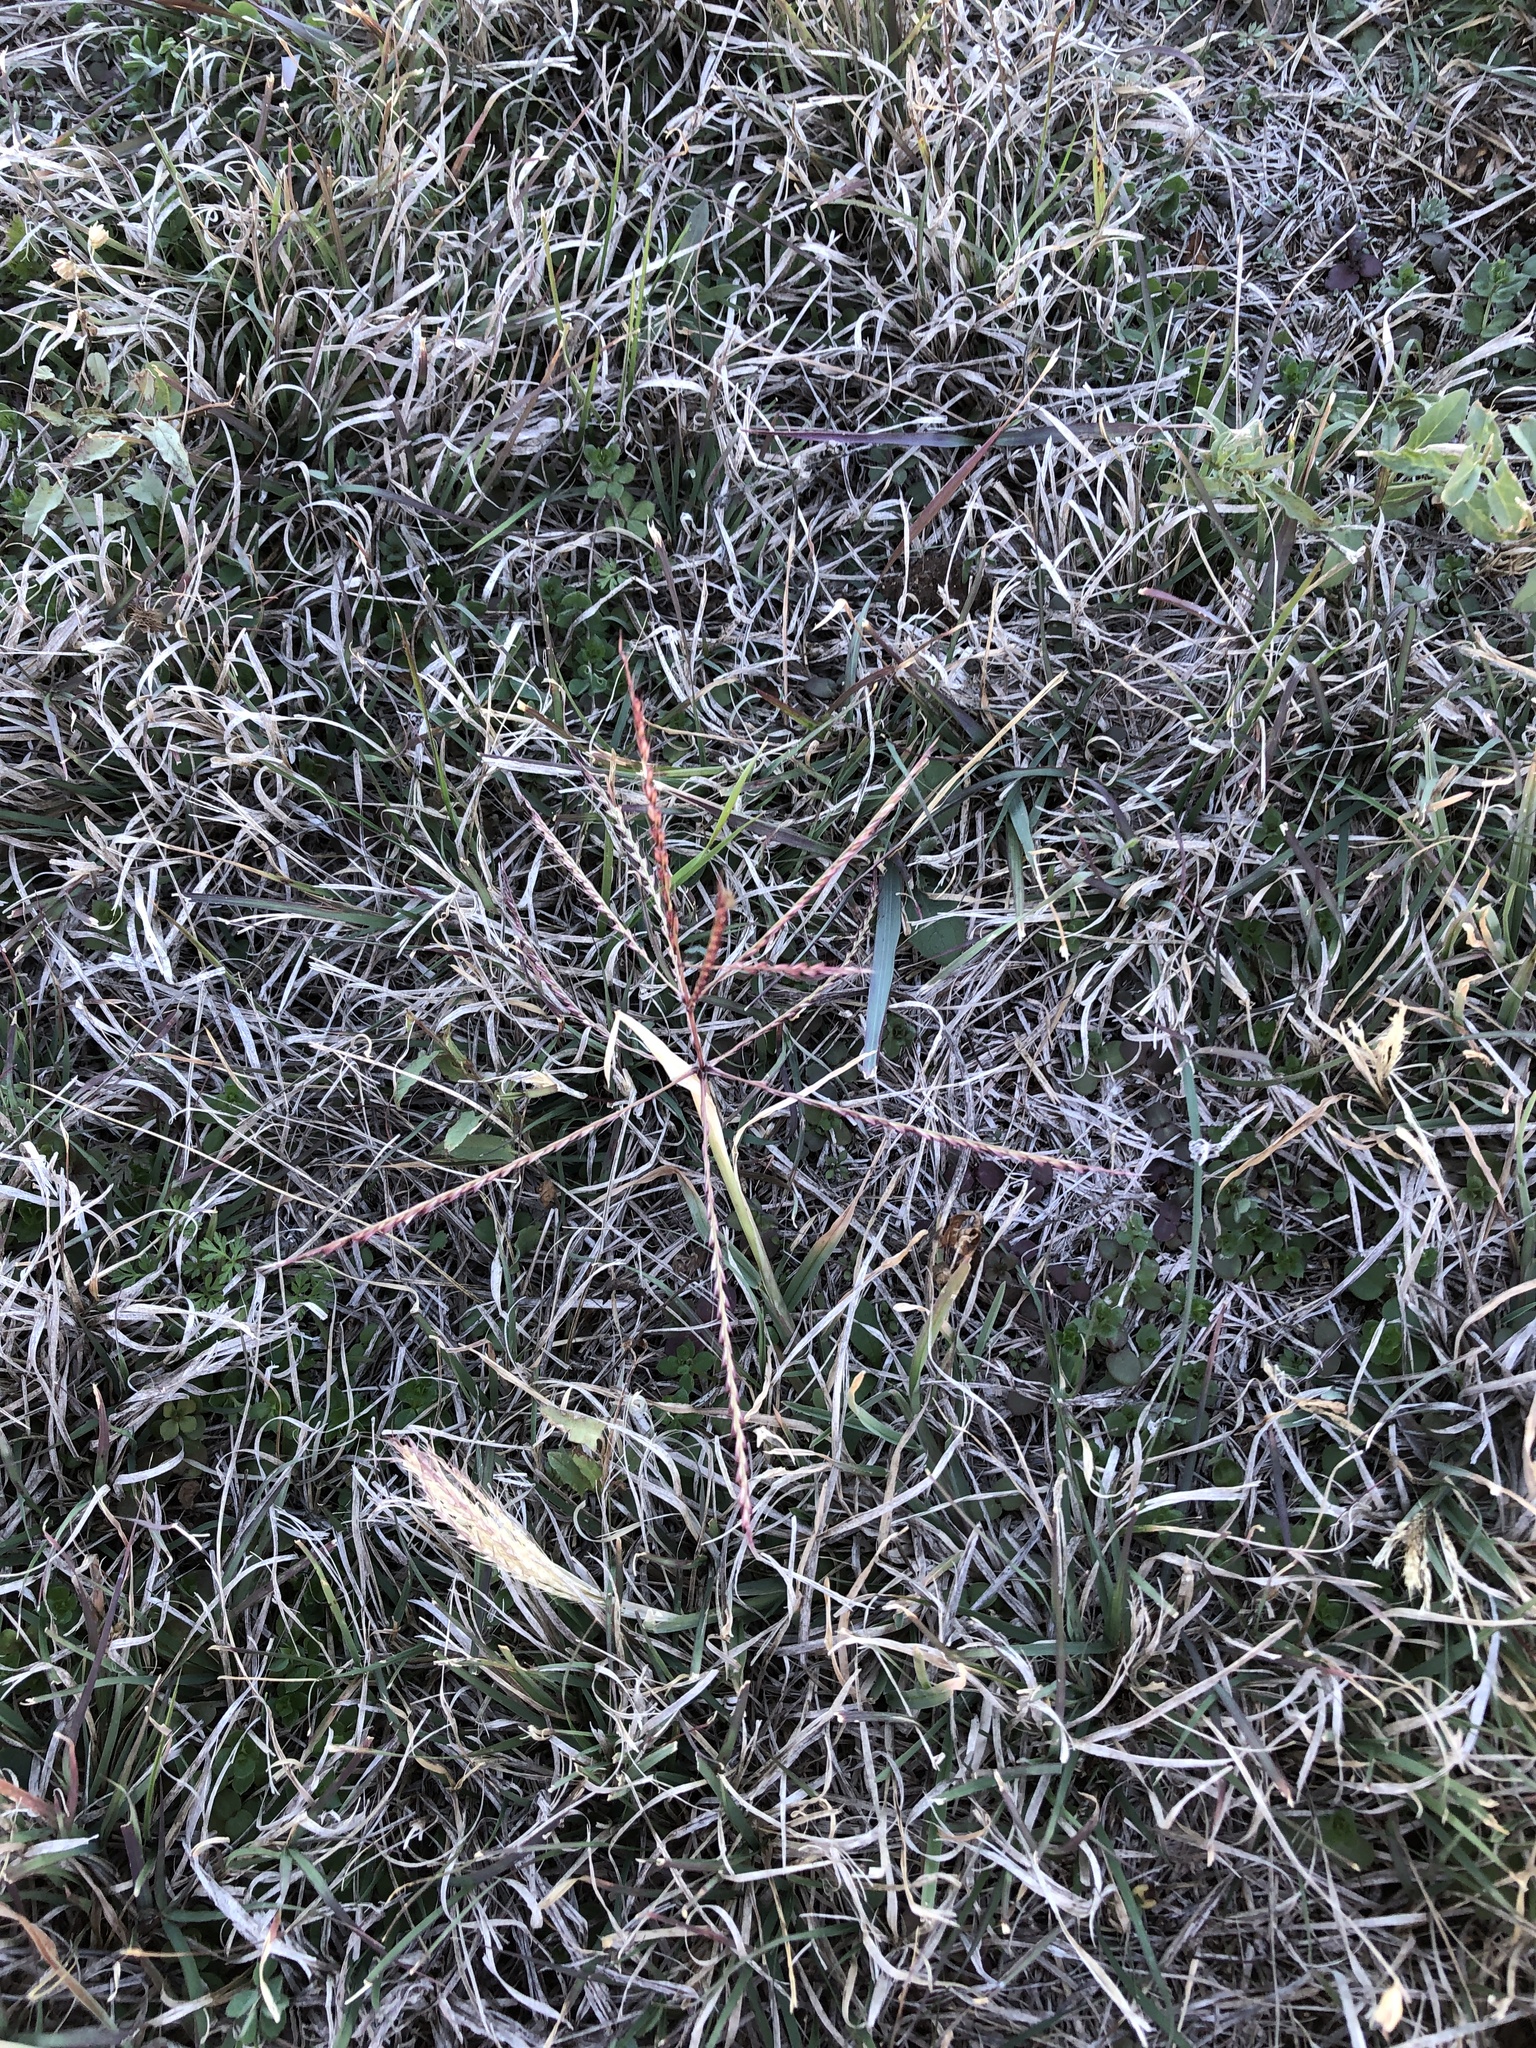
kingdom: Plantae
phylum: Tracheophyta
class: Liliopsida
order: Poales
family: Poaceae
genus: Chloris
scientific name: Chloris verticillata
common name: Tumble windmill grass
